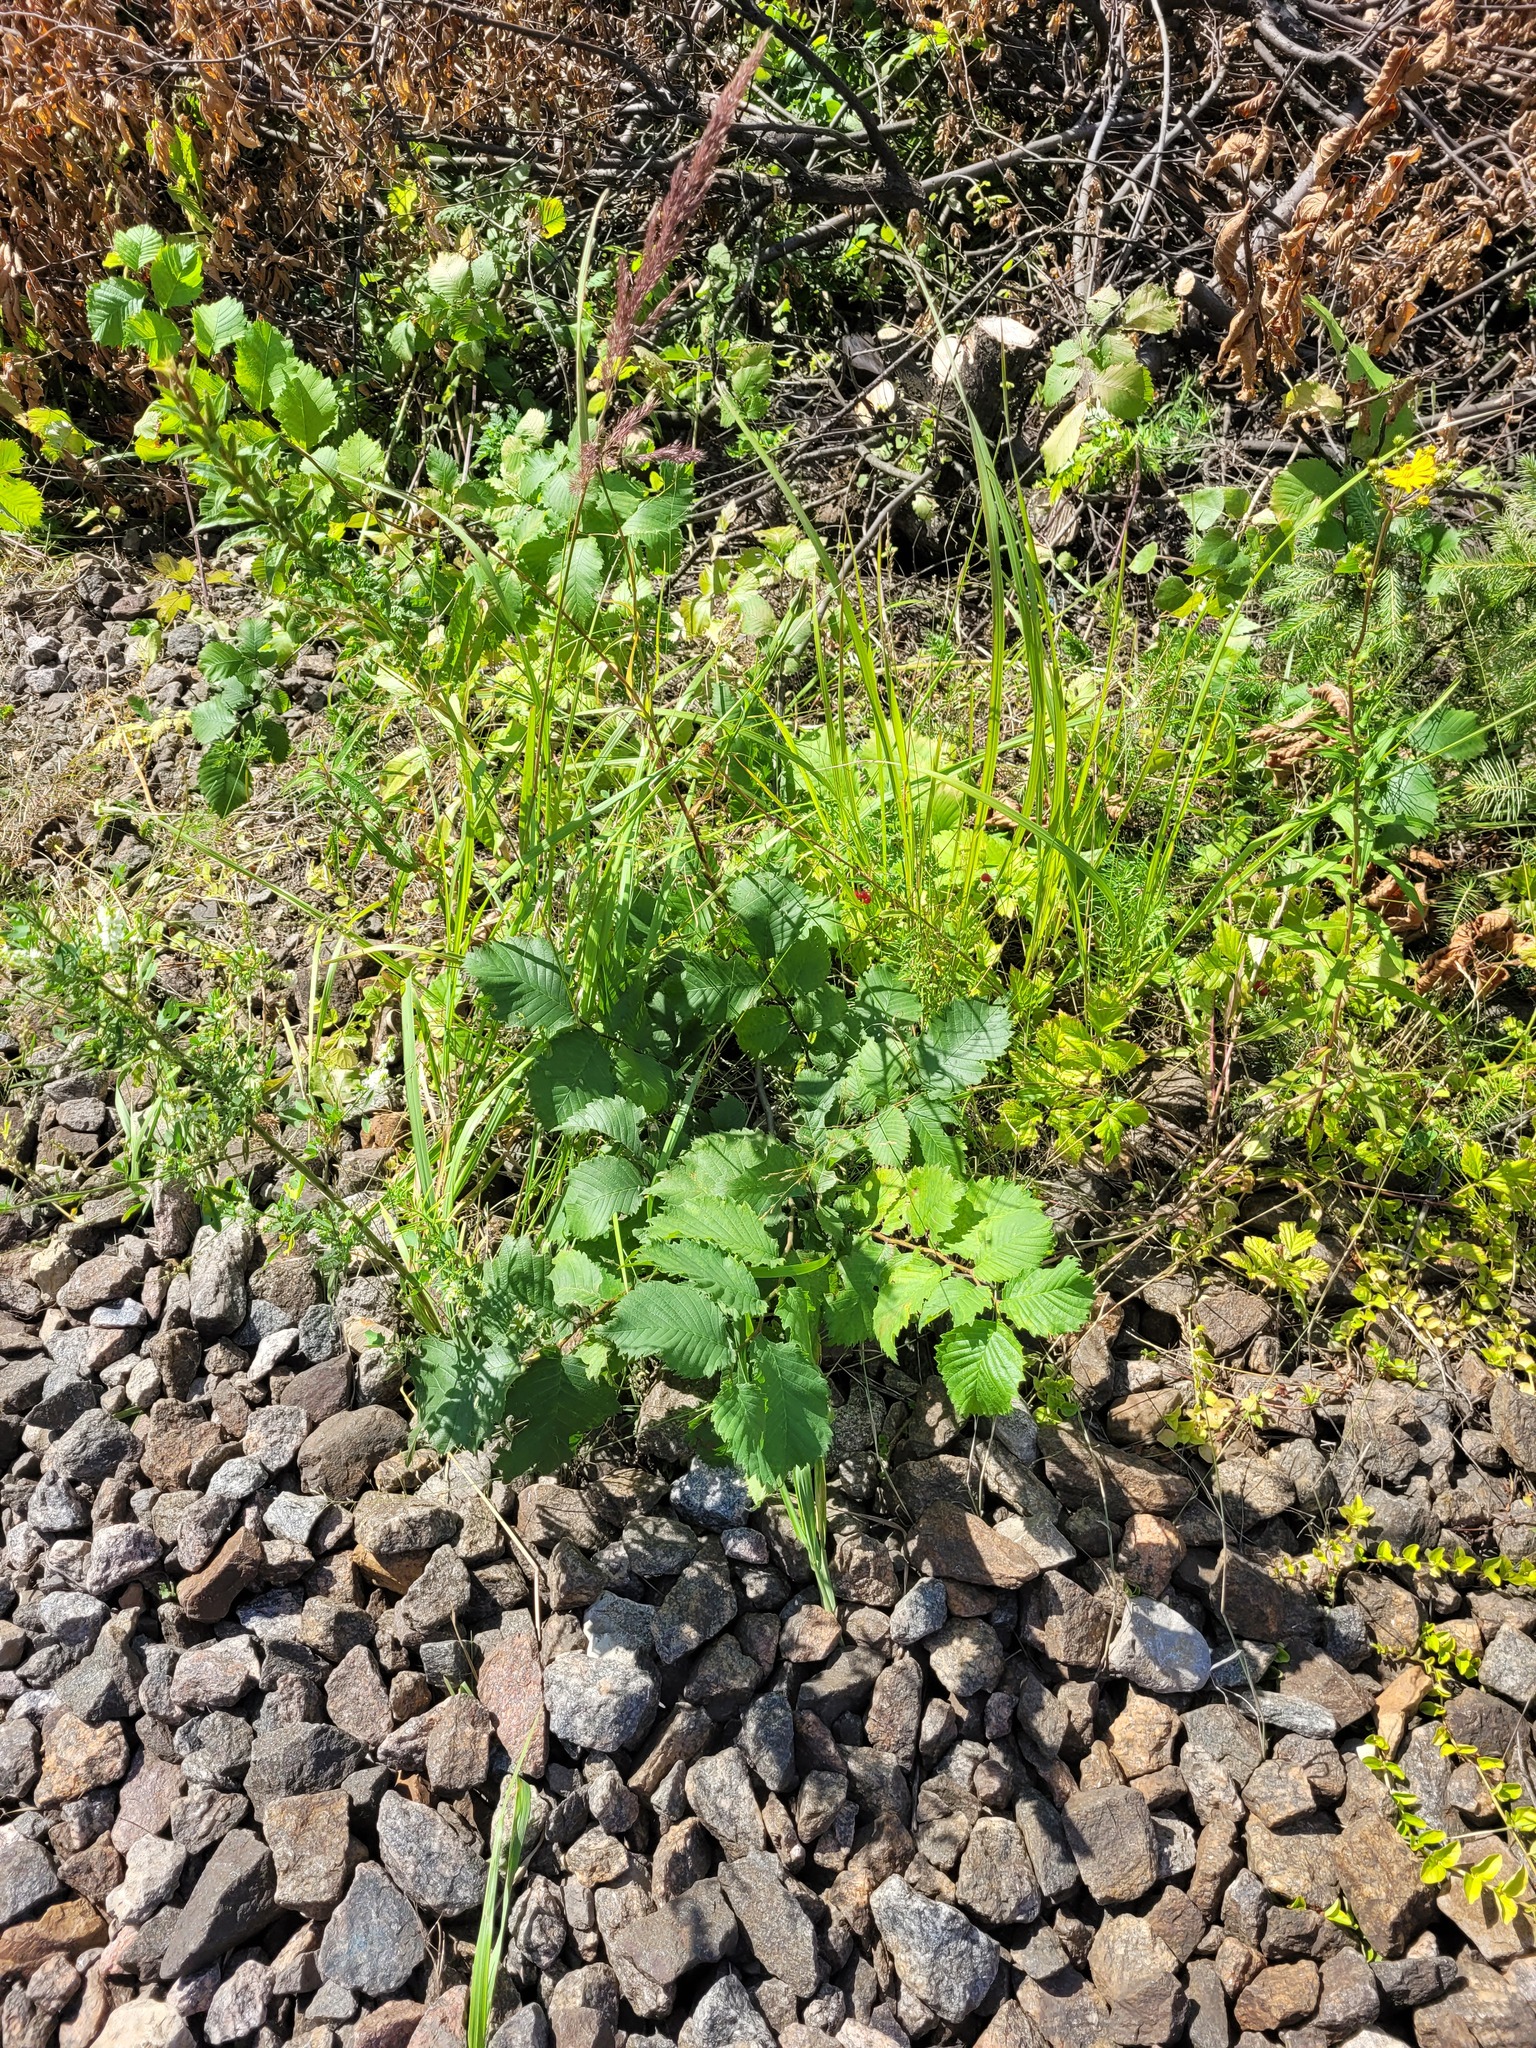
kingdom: Plantae
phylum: Tracheophyta
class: Magnoliopsida
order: Rosales
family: Ulmaceae
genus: Ulmus
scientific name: Ulmus laevis
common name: European white-elm
